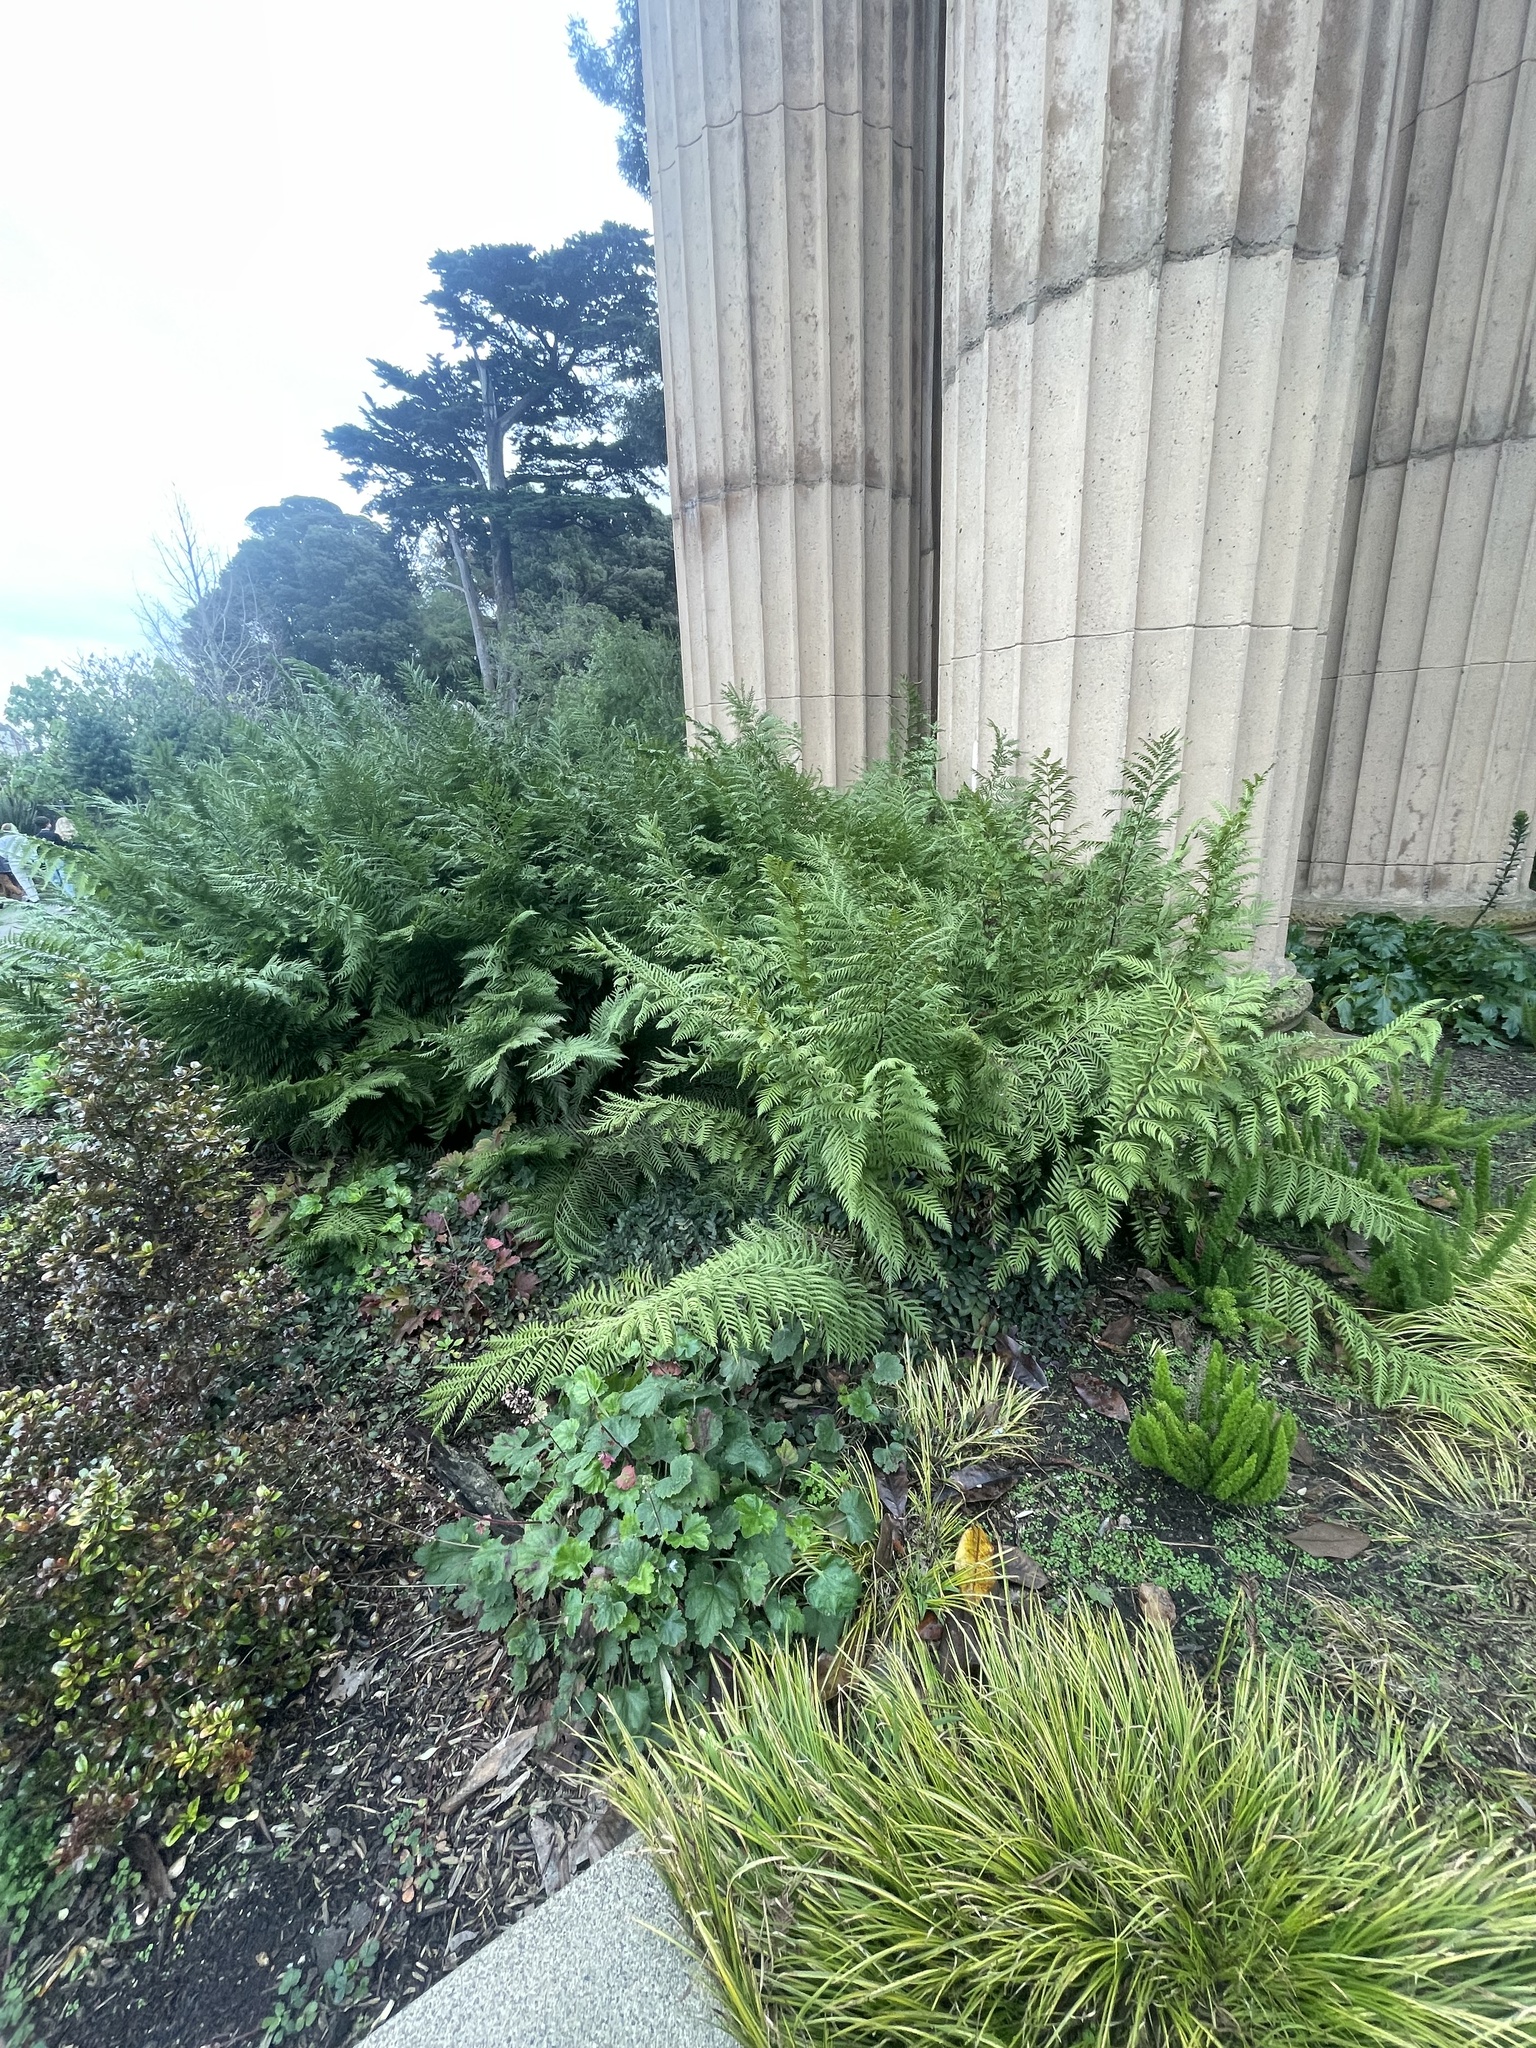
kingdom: Plantae
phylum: Tracheophyta
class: Polypodiopsida
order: Polypodiales
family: Blechnaceae
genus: Woodwardia
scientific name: Woodwardia fimbriata
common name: Giant chain fern
